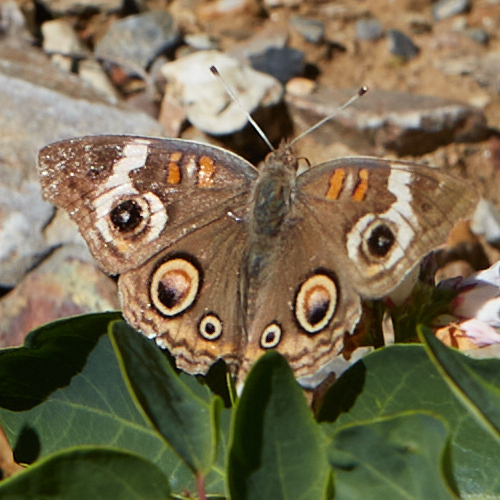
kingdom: Animalia
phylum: Arthropoda
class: Insecta
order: Lepidoptera
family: Nymphalidae
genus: Junonia
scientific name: Junonia grisea
